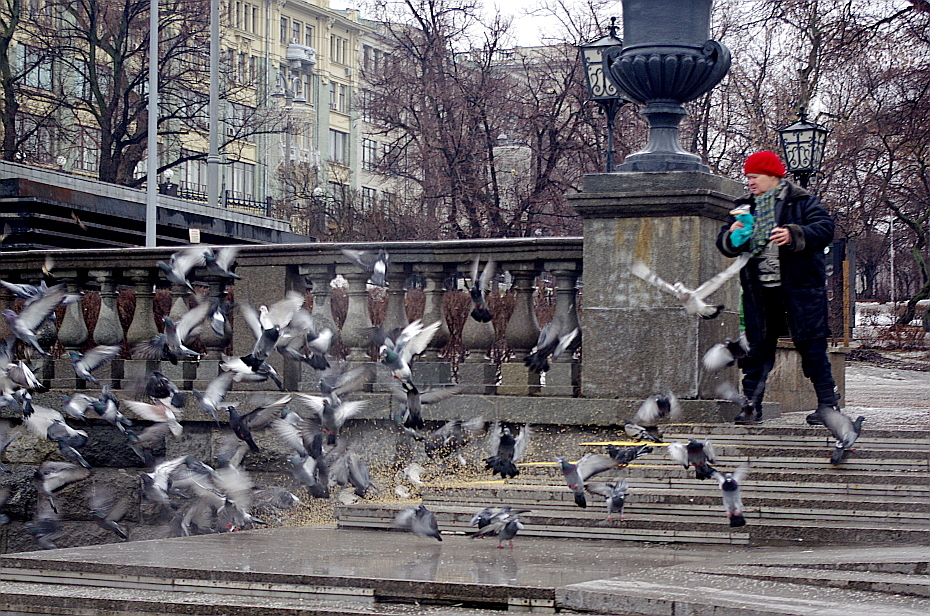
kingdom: Animalia
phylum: Chordata
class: Aves
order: Columbiformes
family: Columbidae
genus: Columba
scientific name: Columba livia
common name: Rock pigeon
